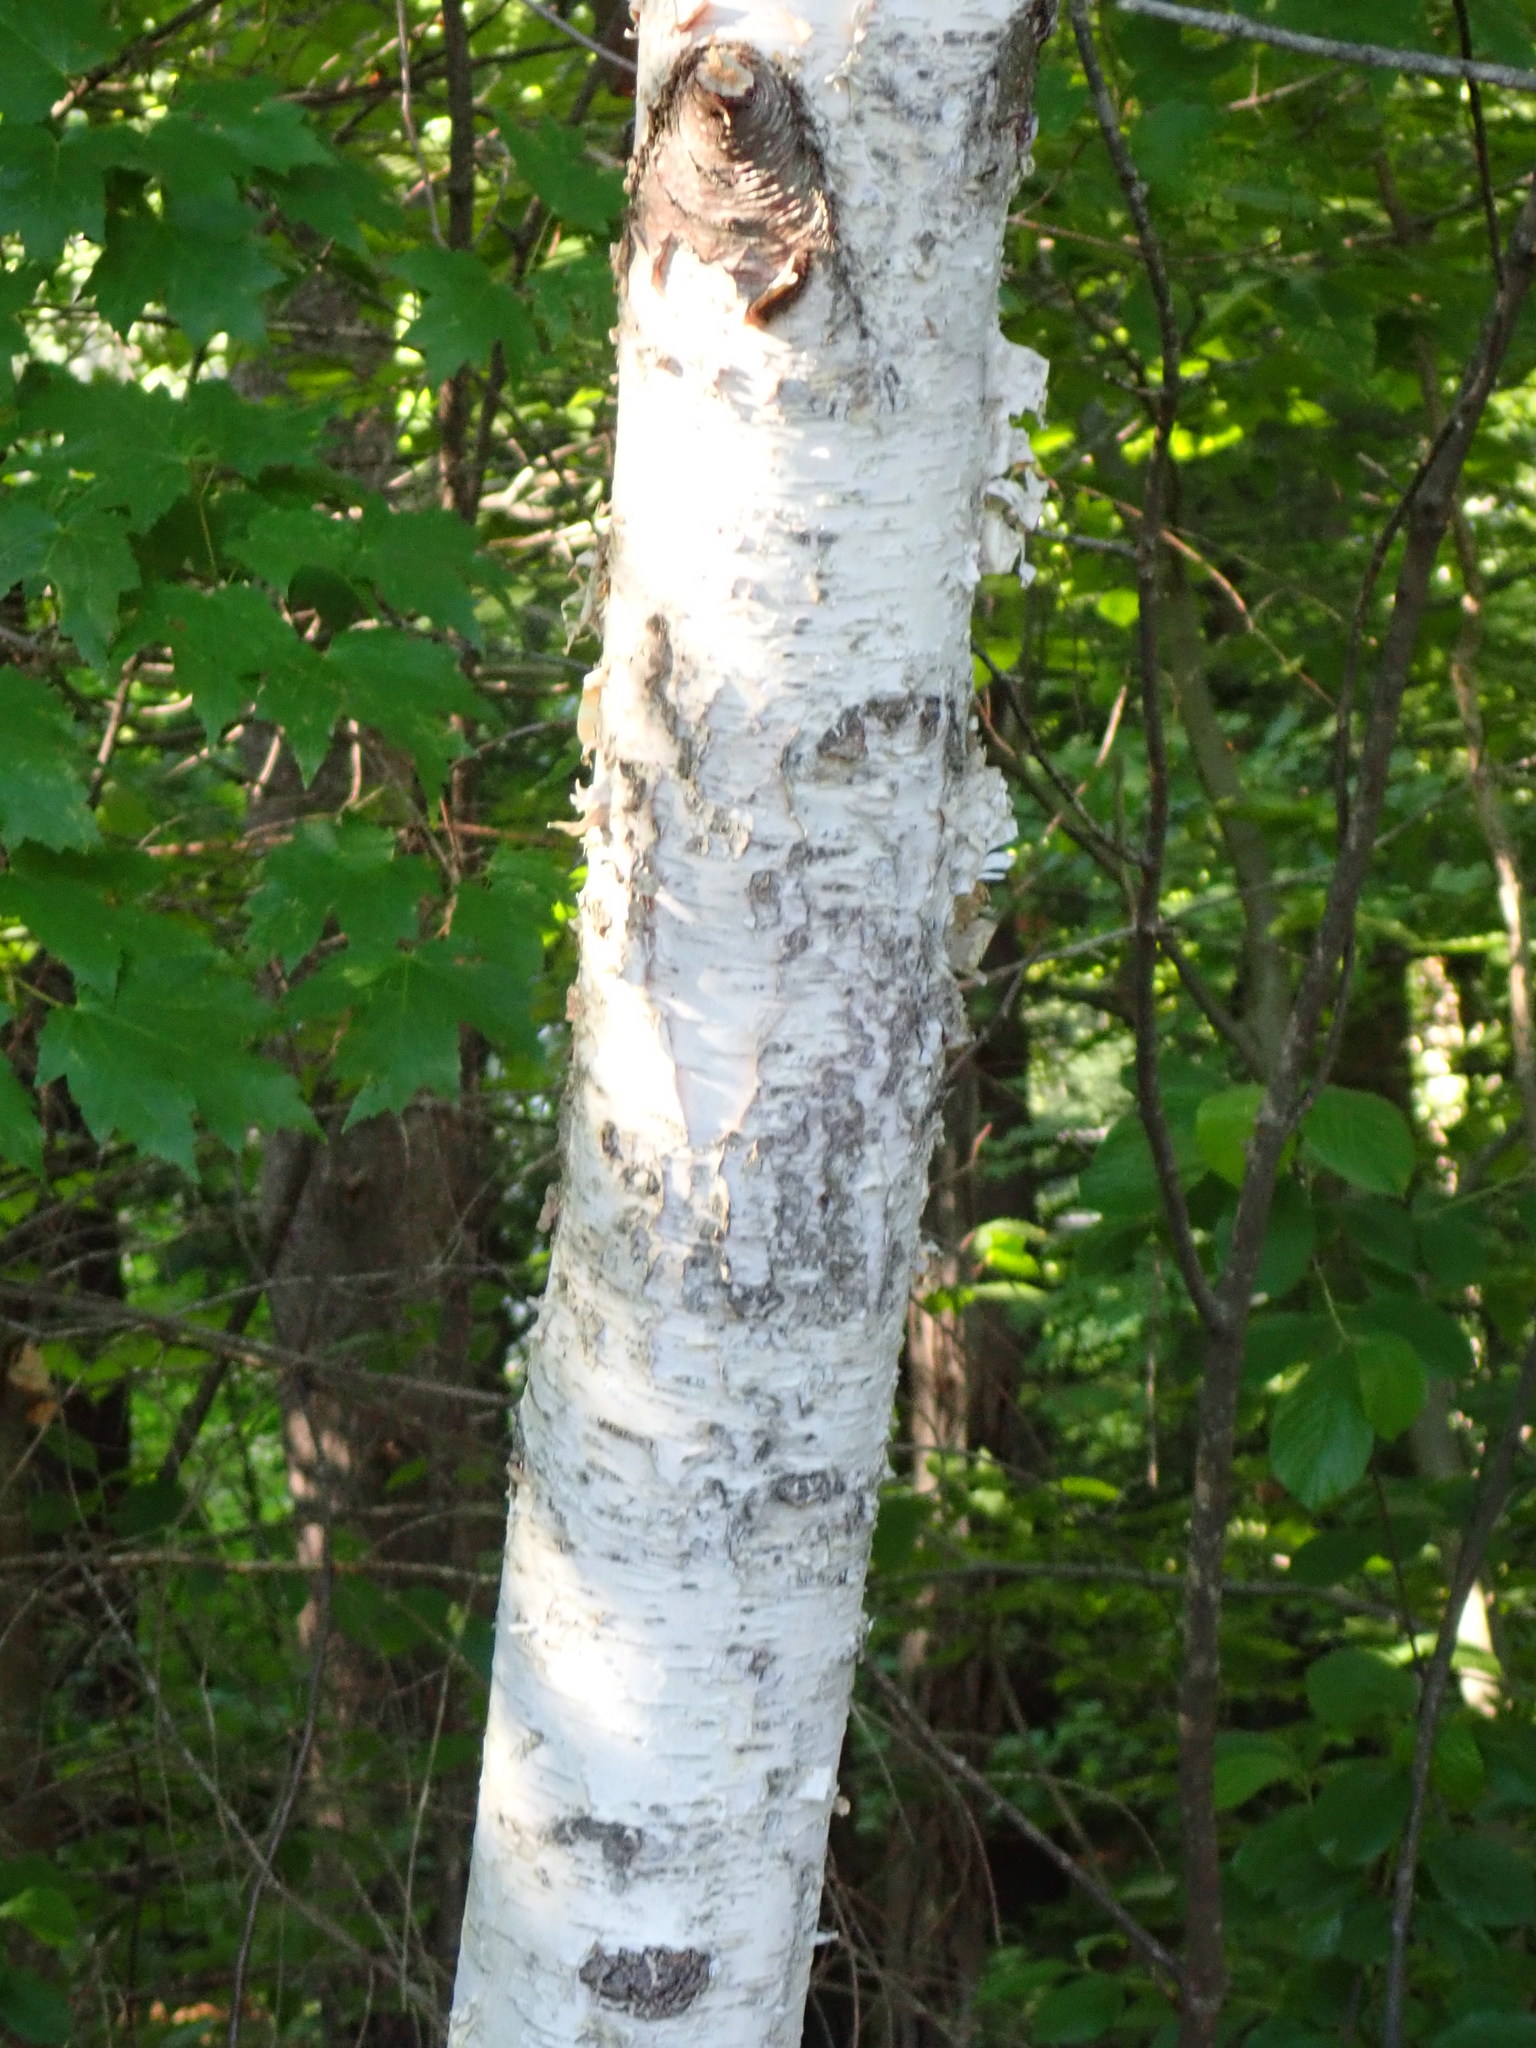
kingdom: Plantae
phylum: Tracheophyta
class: Magnoliopsida
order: Fagales
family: Betulaceae
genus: Betula
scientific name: Betula papyrifera
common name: Paper birch
